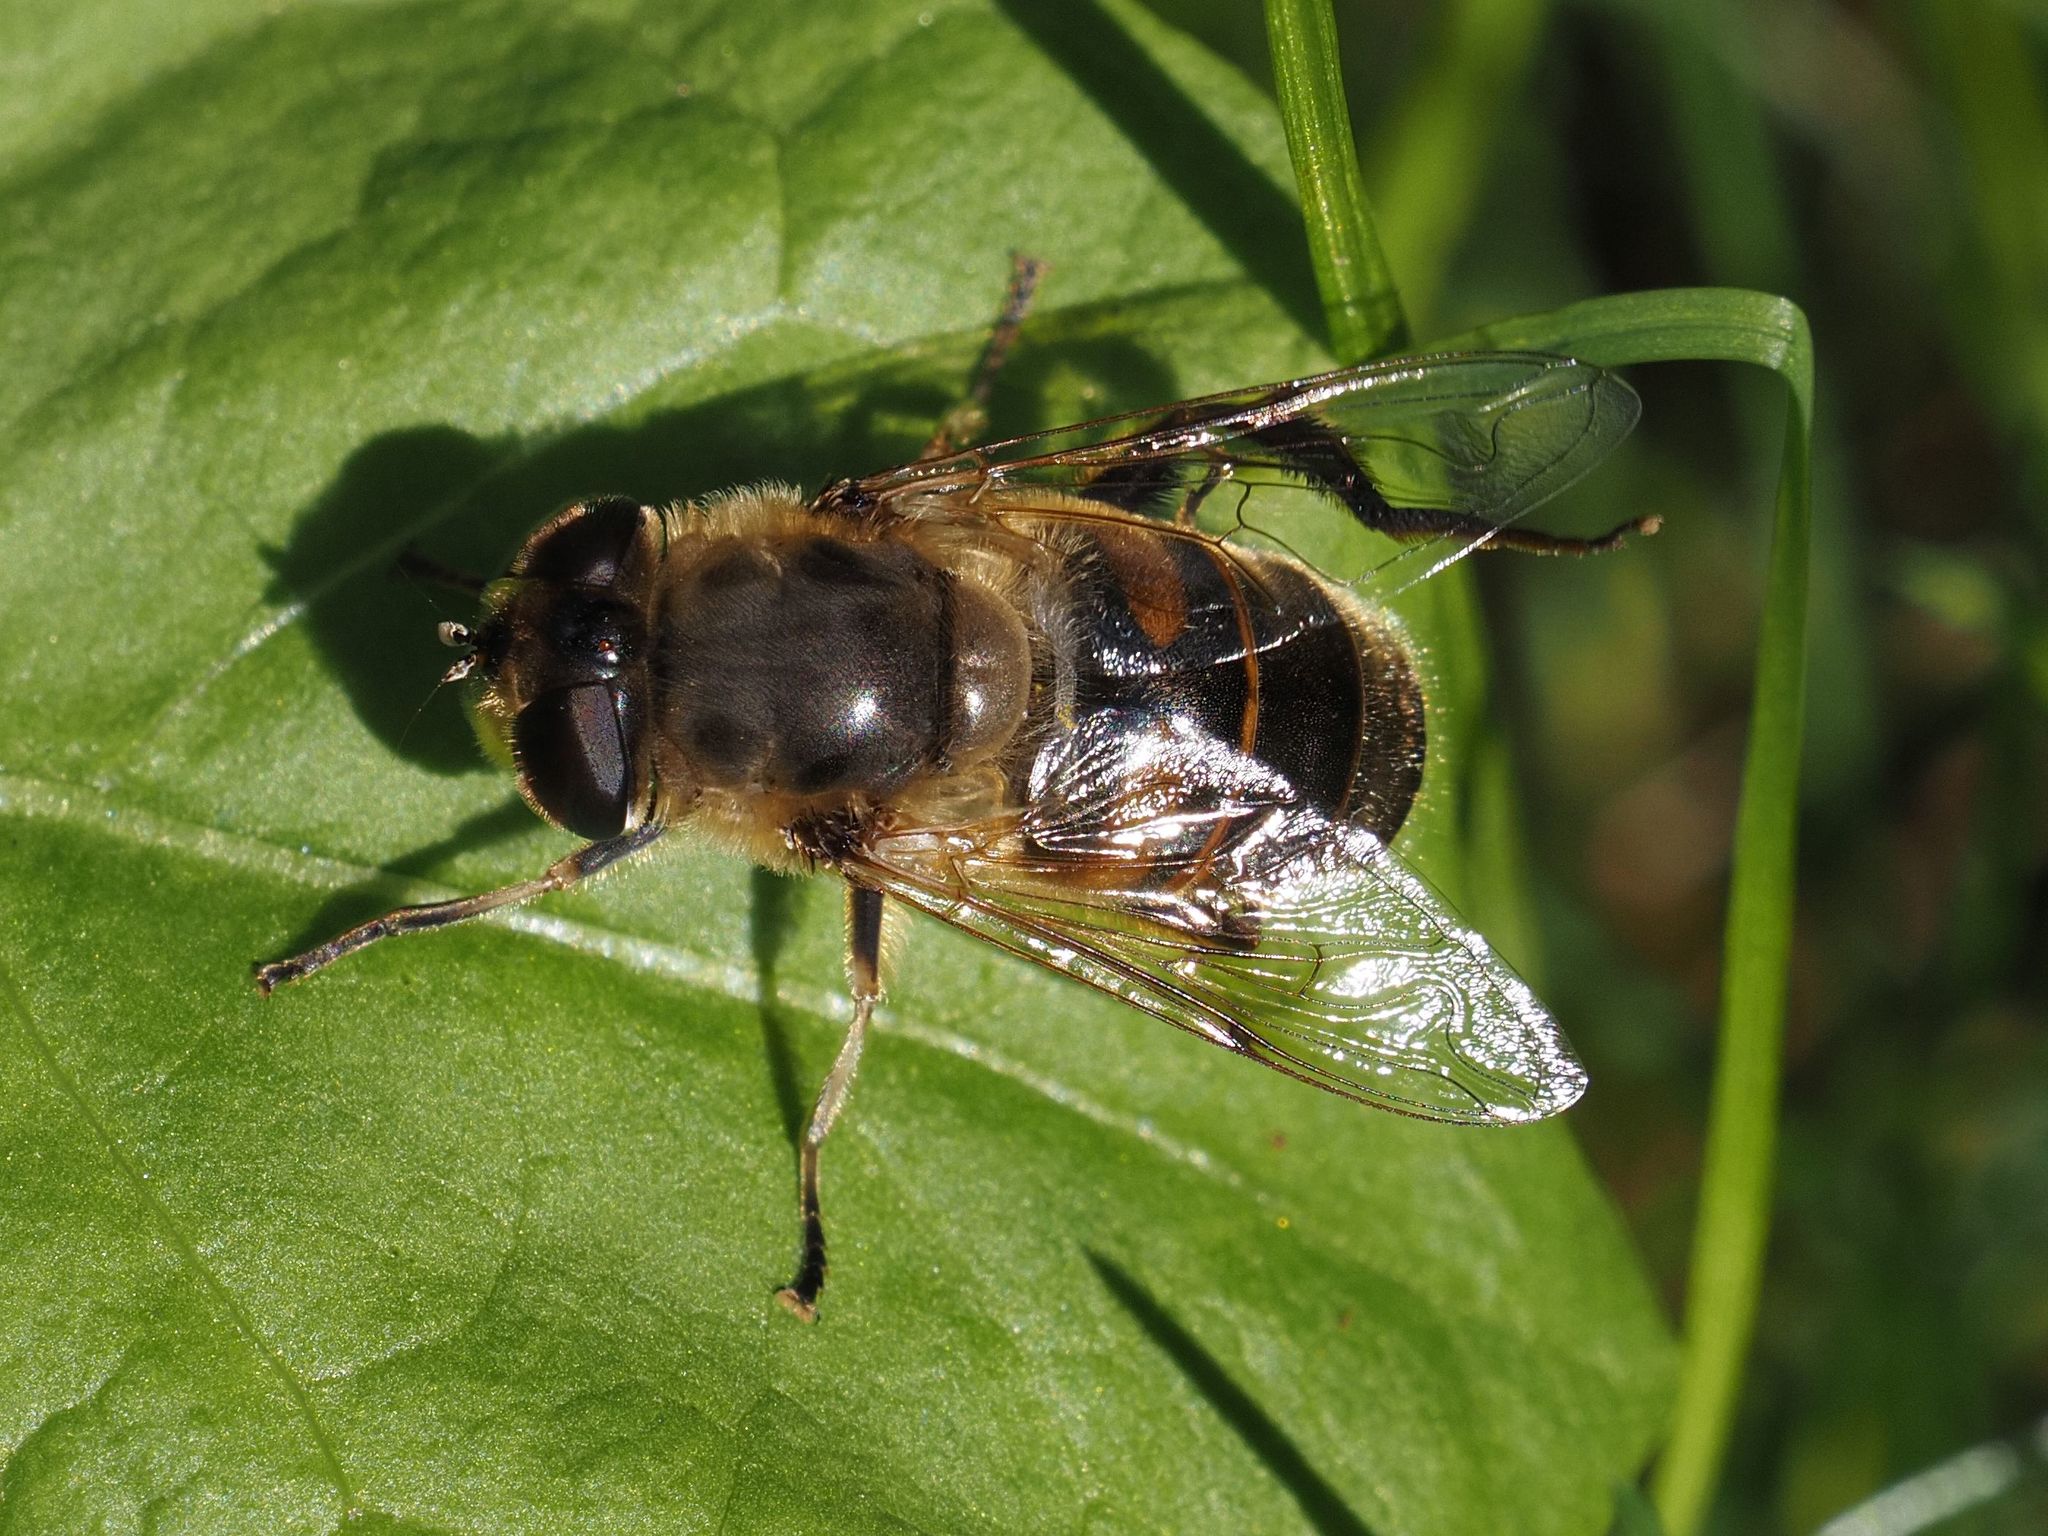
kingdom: Animalia
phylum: Arthropoda
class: Insecta
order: Diptera
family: Syrphidae
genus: Eristalis
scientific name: Eristalis tenax
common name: Drone fly
